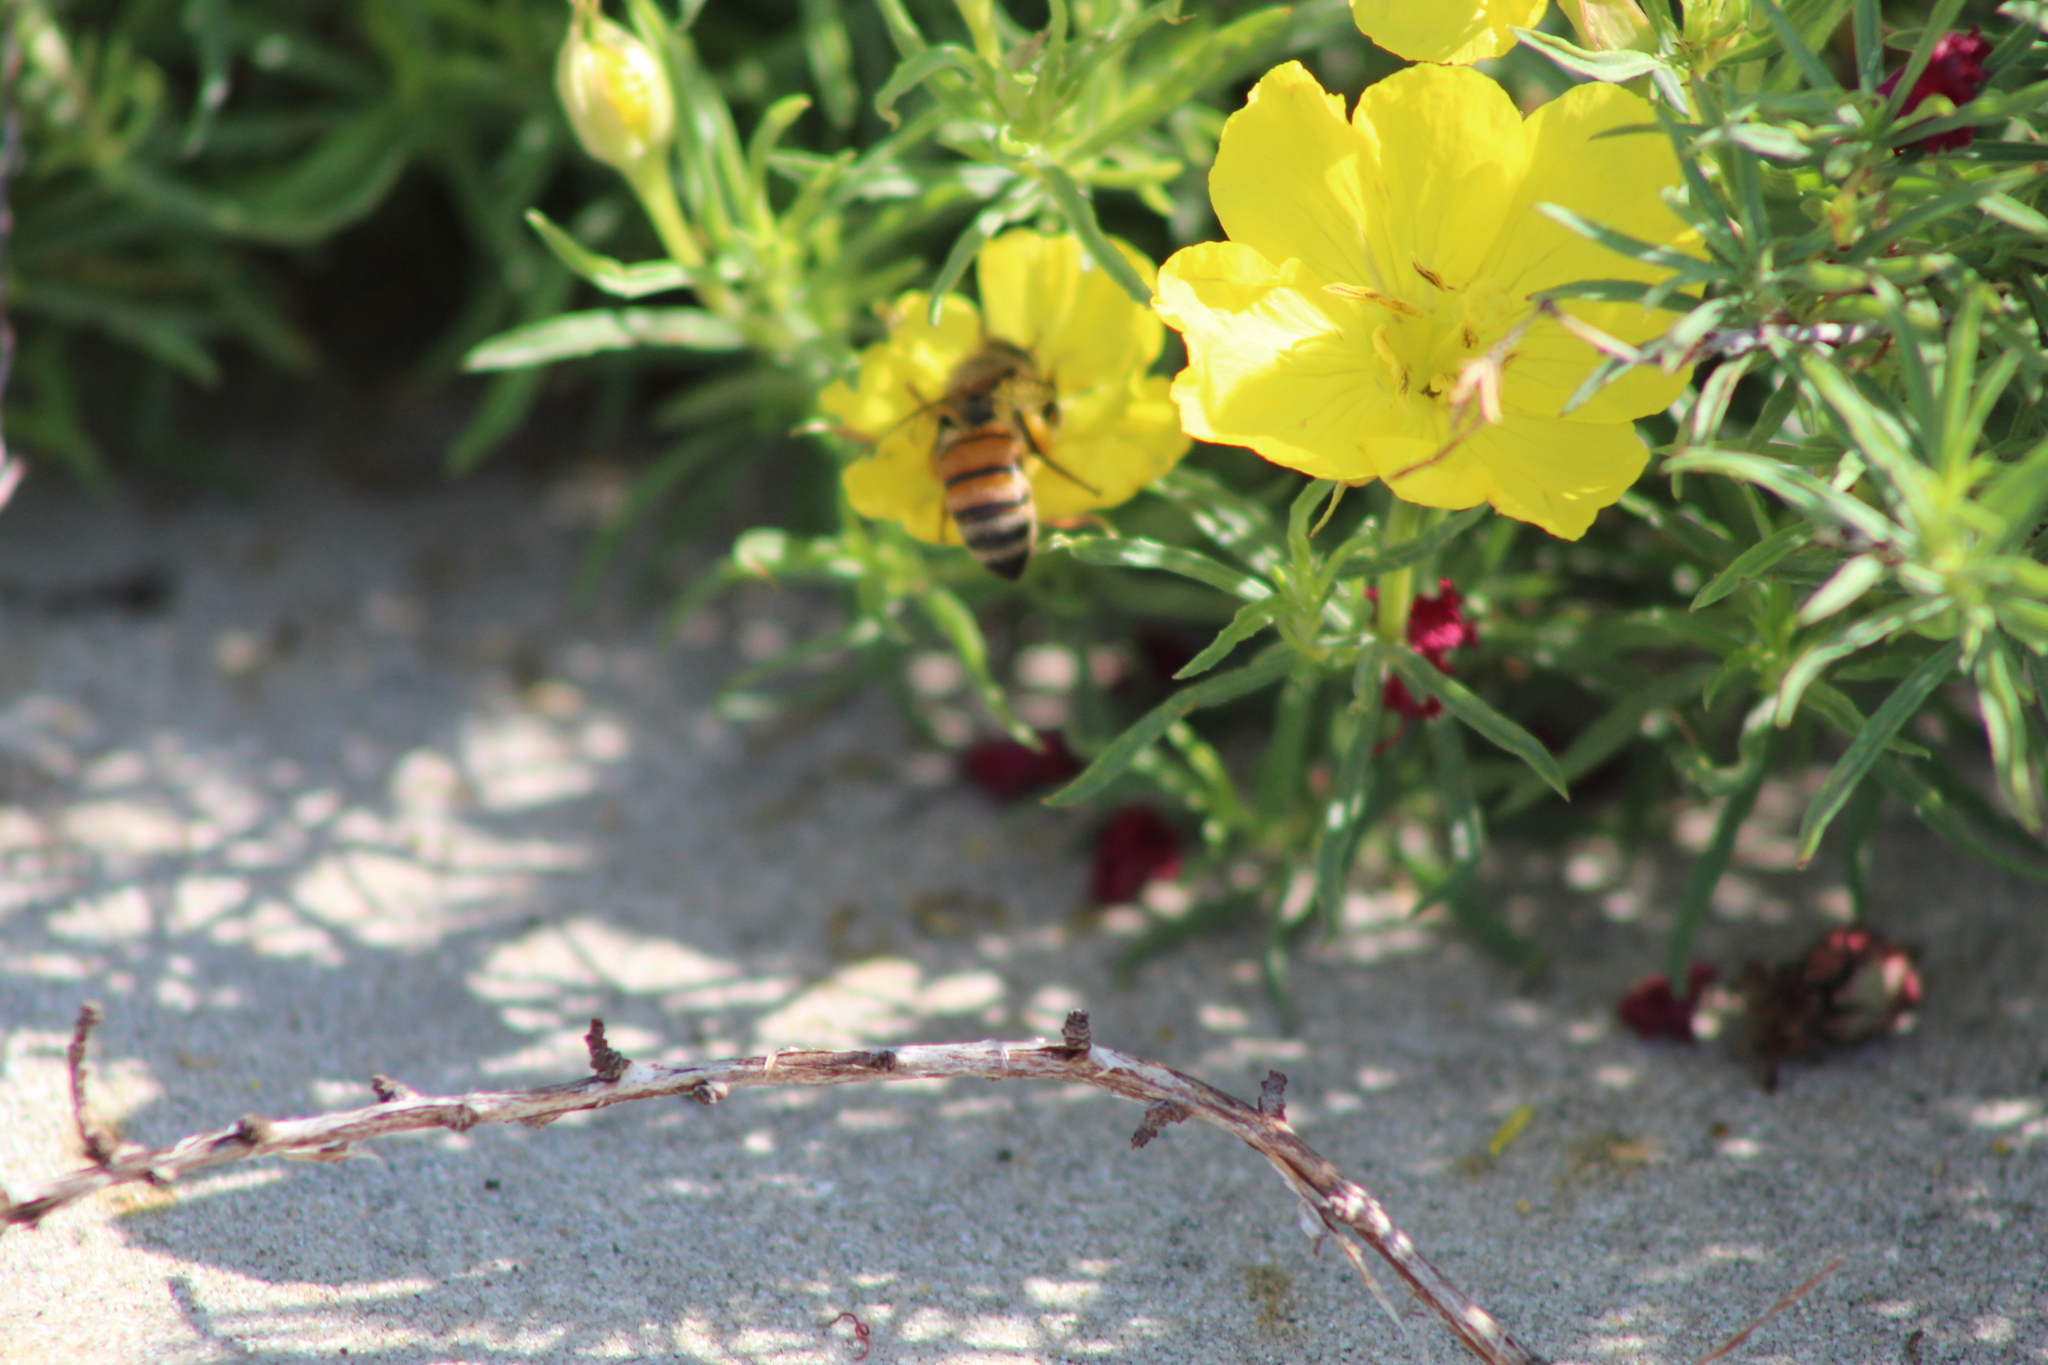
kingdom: Animalia
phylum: Arthropoda
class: Insecta
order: Hymenoptera
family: Apidae
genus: Apis
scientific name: Apis mellifera
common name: Honey bee
